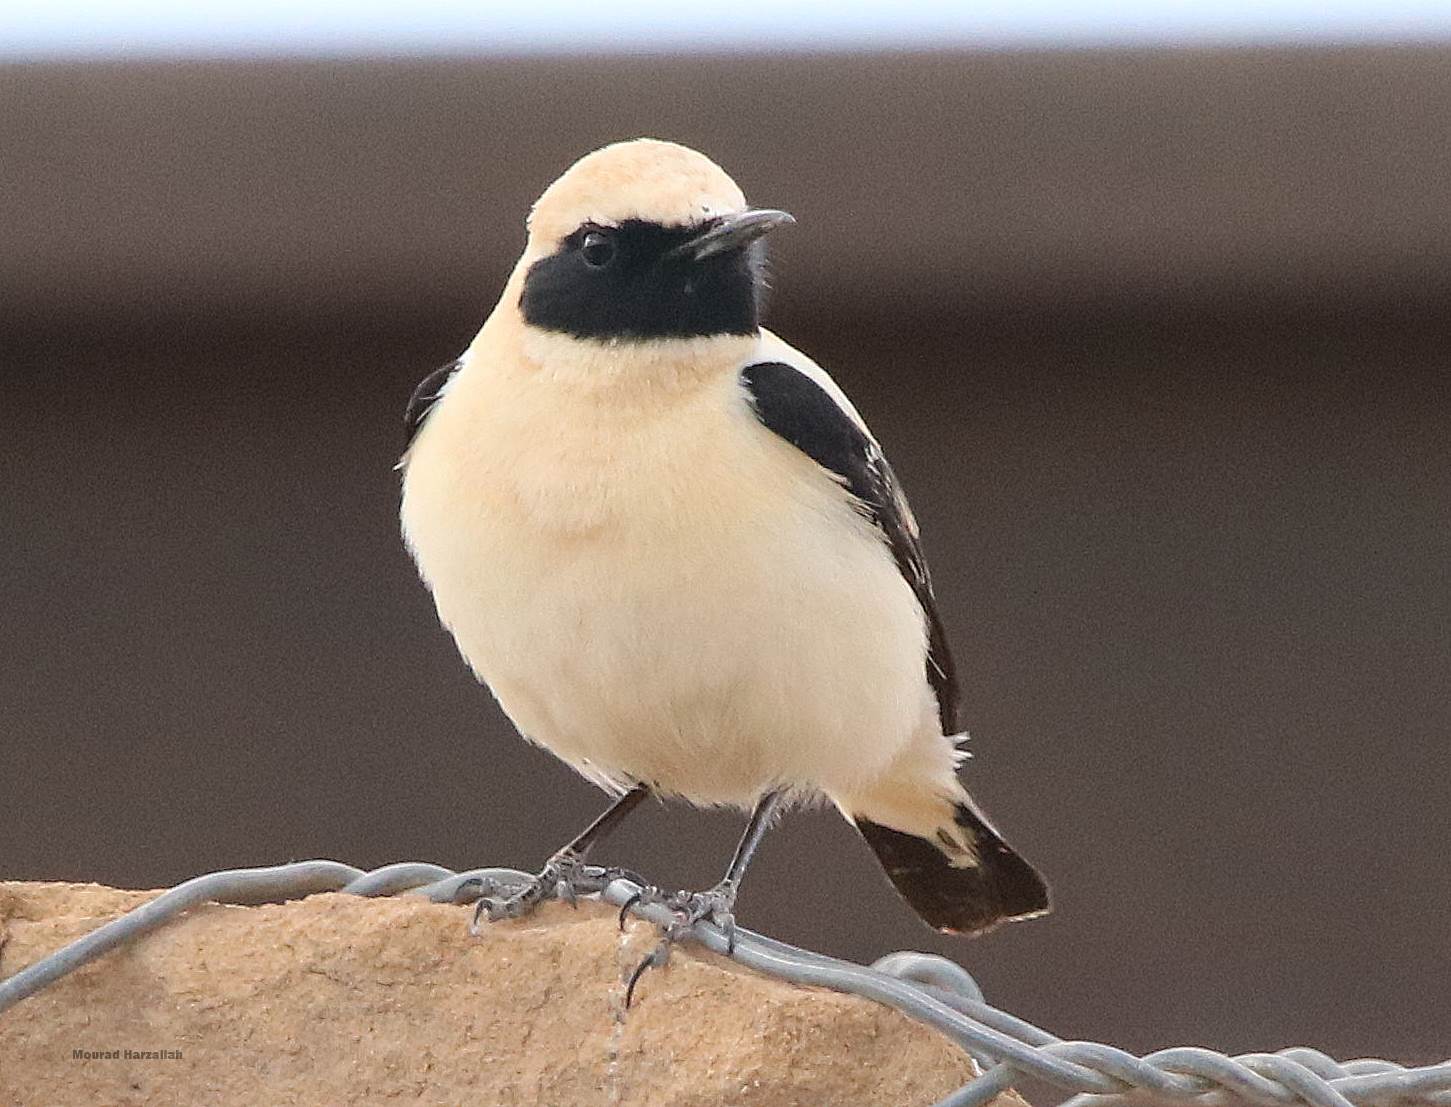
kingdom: Animalia
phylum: Chordata
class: Aves
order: Passeriformes
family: Muscicapidae
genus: Oenanthe
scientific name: Oenanthe hispanica
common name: Black-eared wheatear
